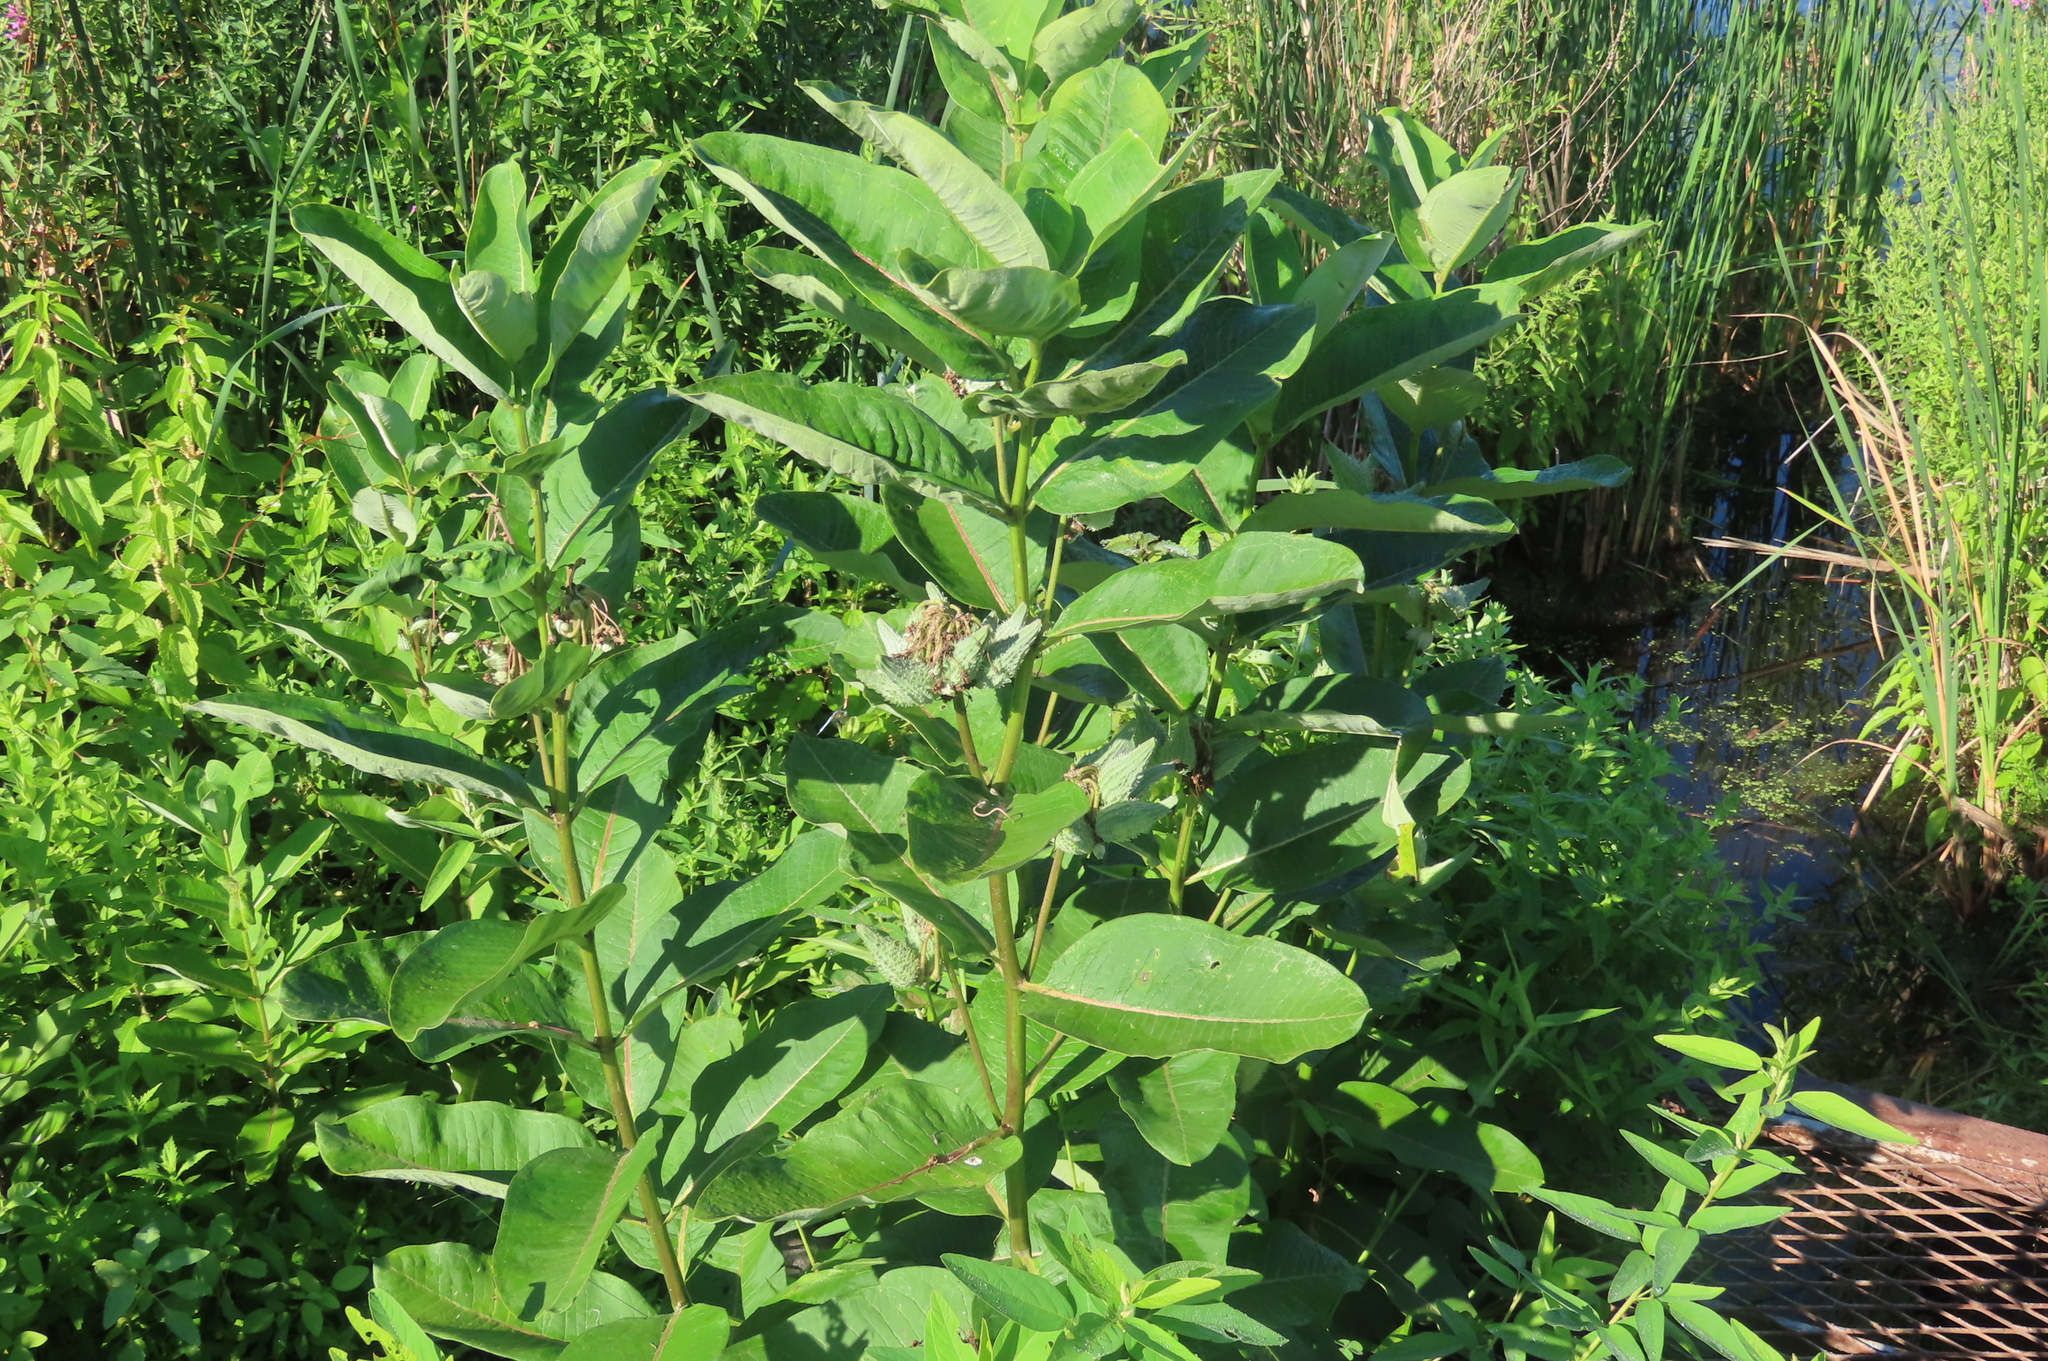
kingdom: Plantae
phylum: Tracheophyta
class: Magnoliopsida
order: Gentianales
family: Apocynaceae
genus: Asclepias
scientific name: Asclepias syriaca
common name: Common milkweed
